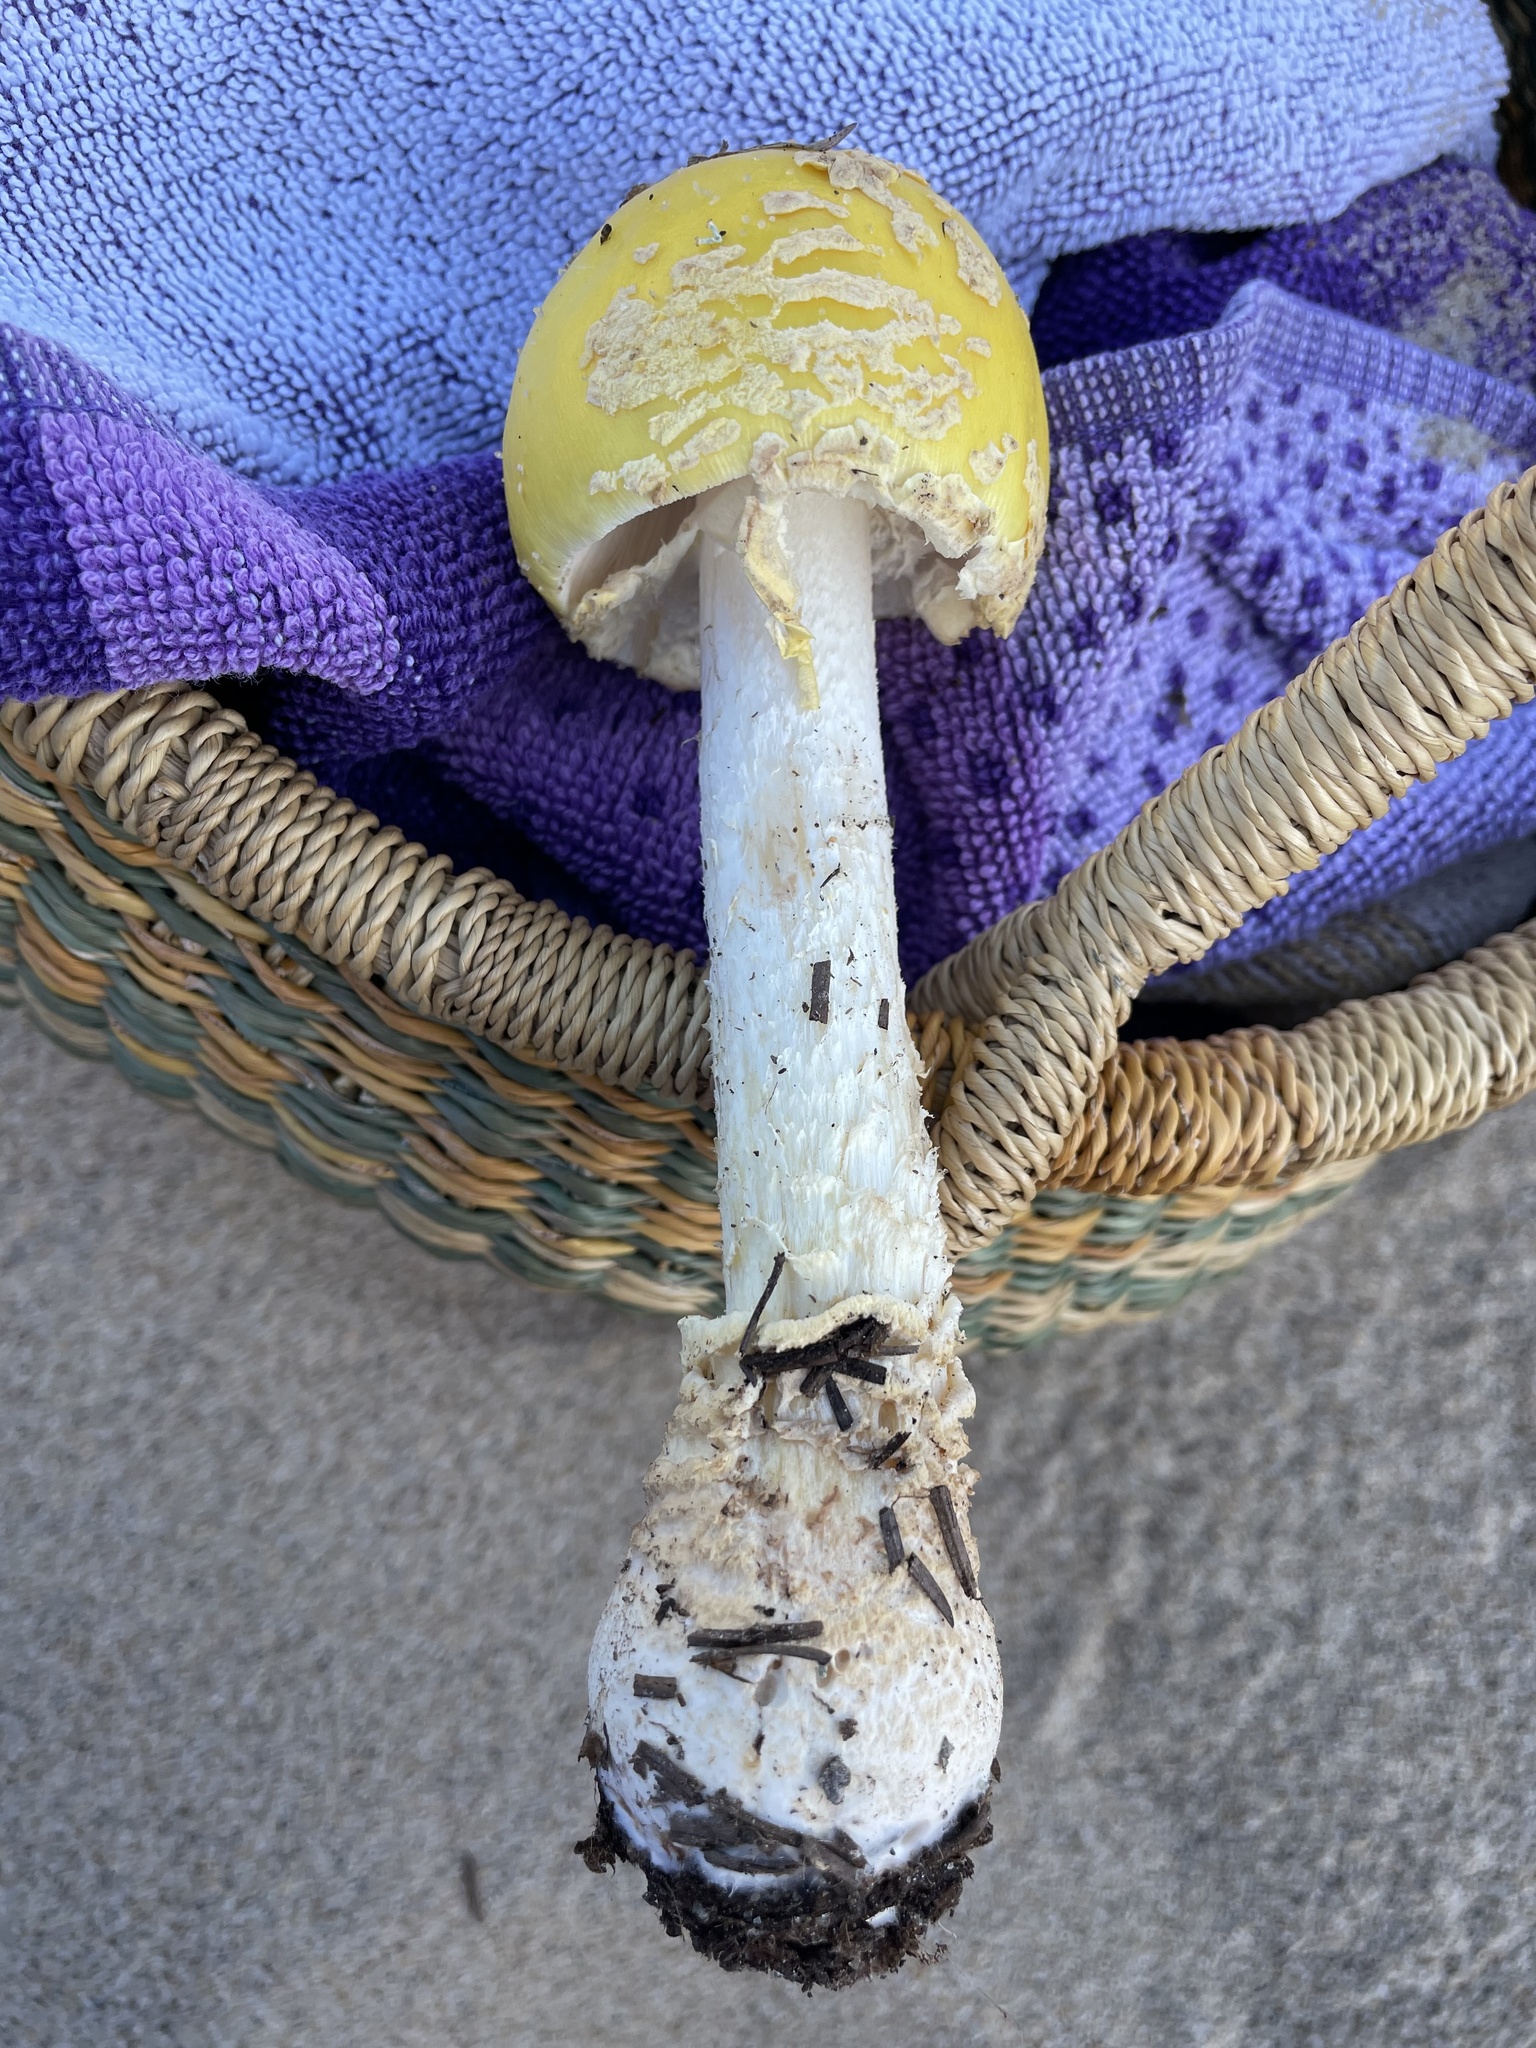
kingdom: Fungi
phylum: Basidiomycota
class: Agaricomycetes
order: Agaricales
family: Amanitaceae
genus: Amanita
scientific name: Amanita muscaria
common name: Fly agaric
